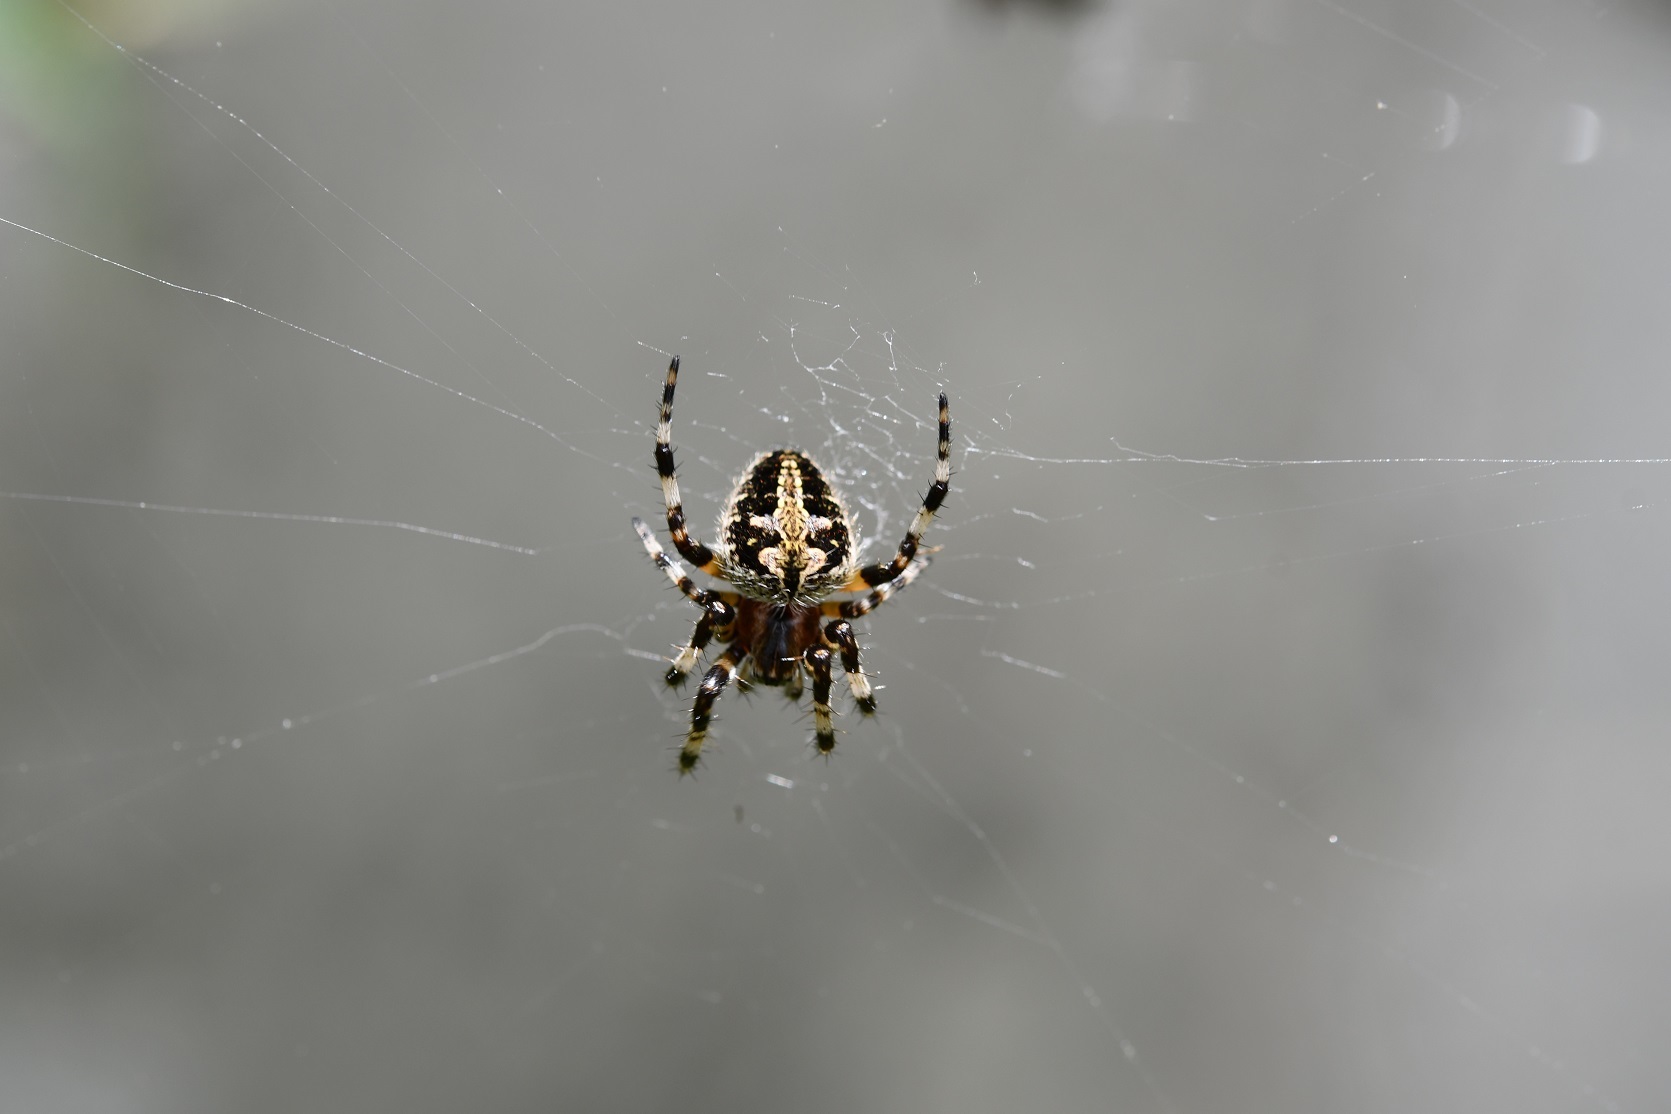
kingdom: Animalia
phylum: Arthropoda
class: Arachnida
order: Araneae
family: Araneidae
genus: Neoscona
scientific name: Neoscona orizabensis
